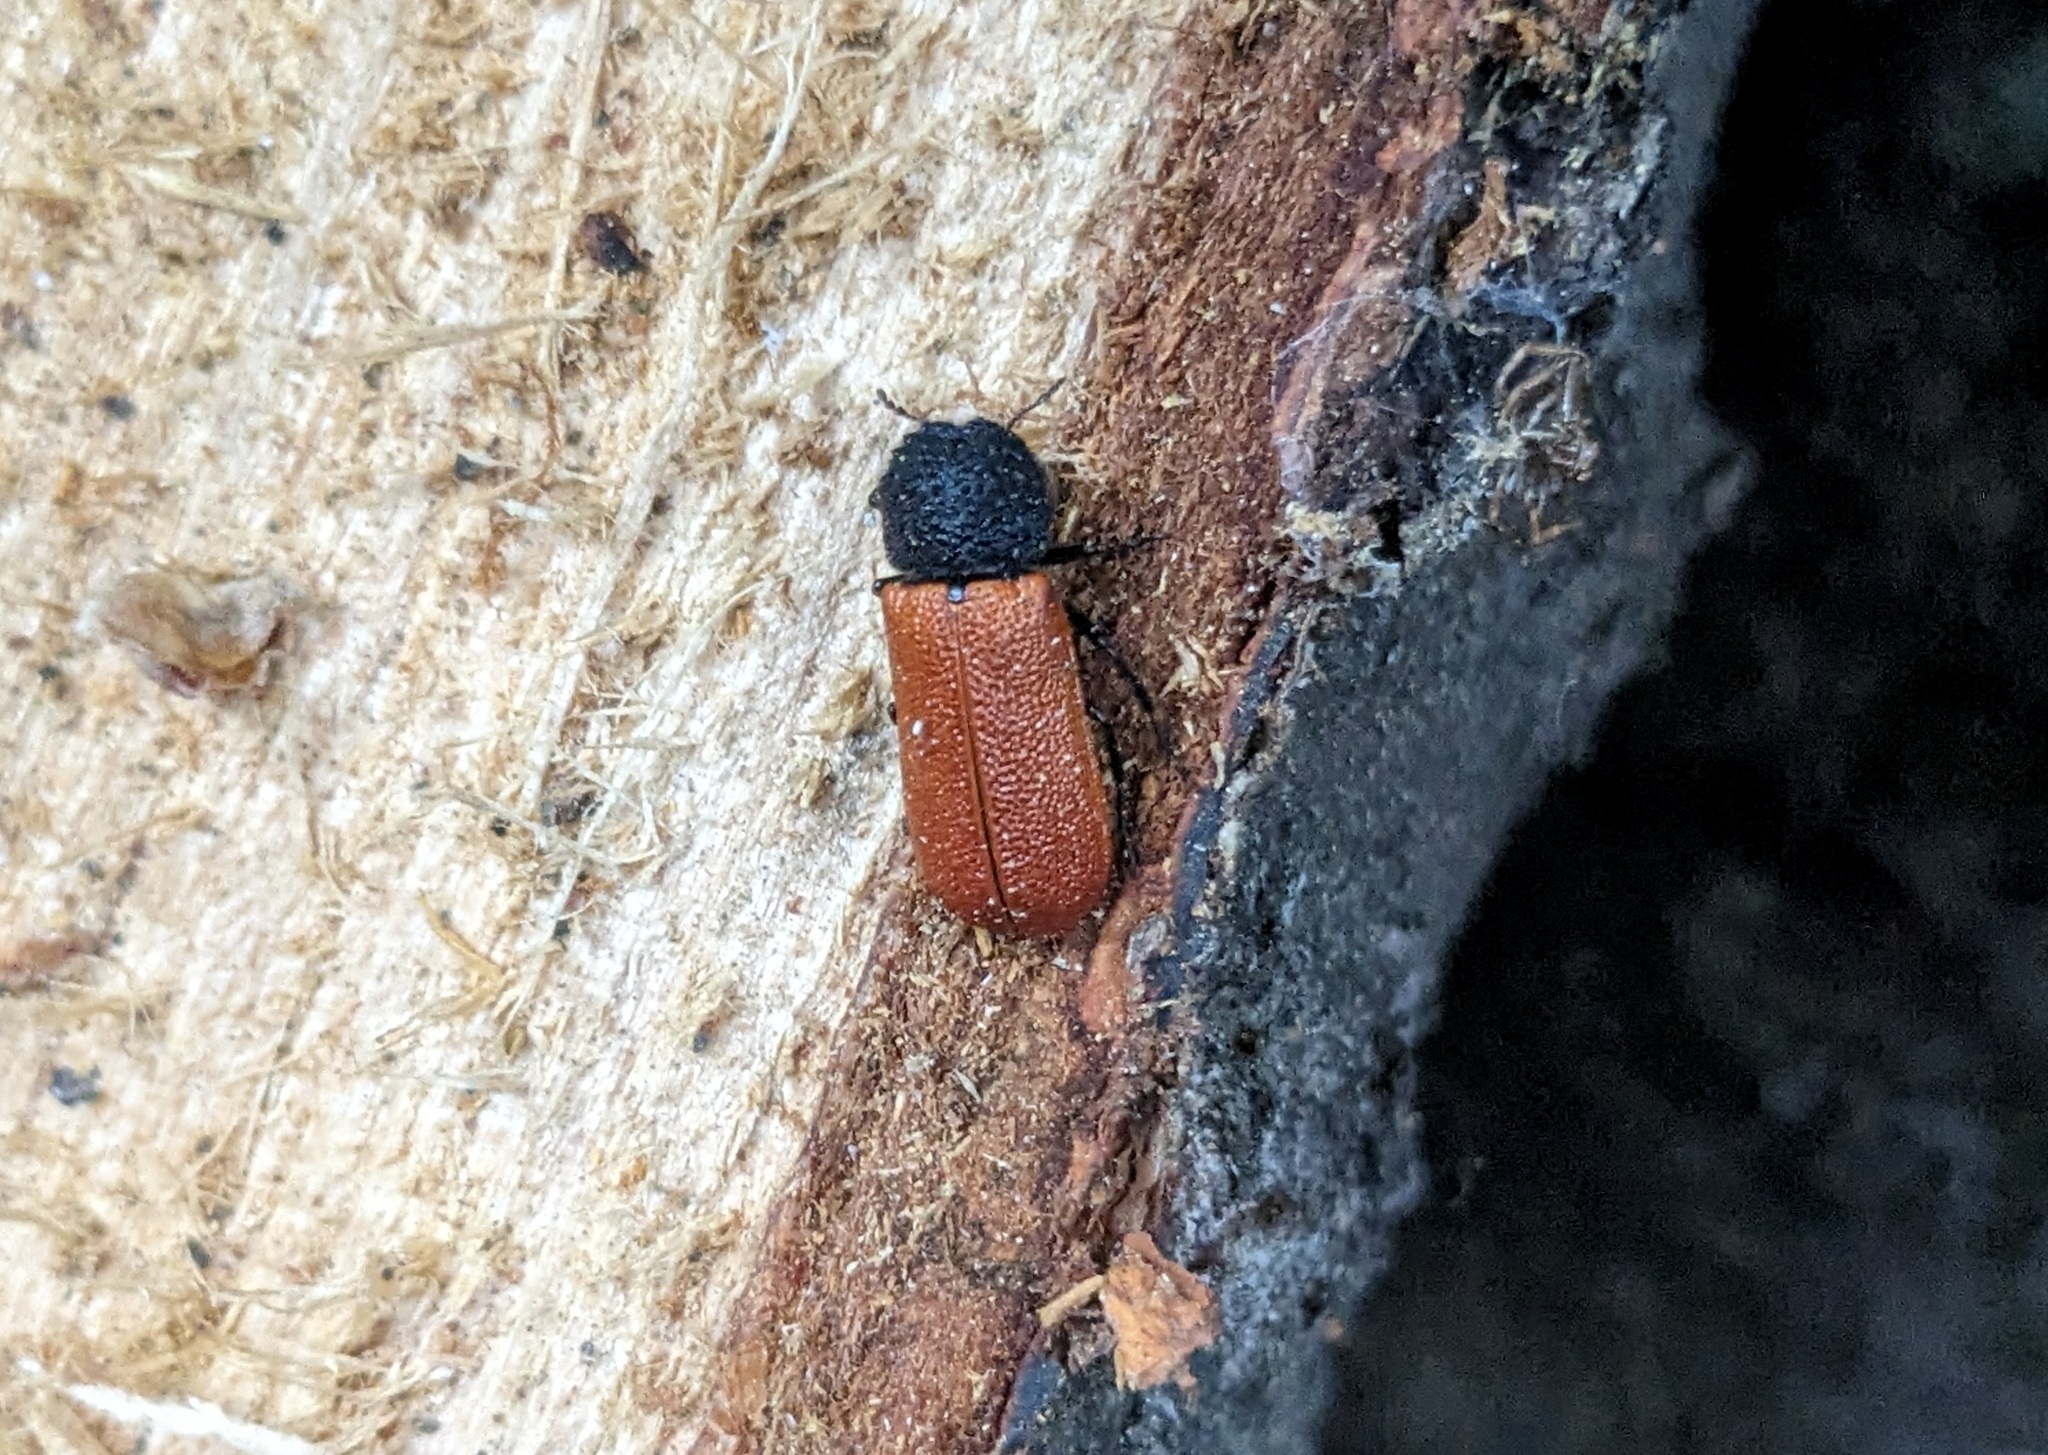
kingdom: Animalia
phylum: Arthropoda
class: Insecta
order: Coleoptera
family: Bostrichidae
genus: Bostrichus
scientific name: Bostrichus capucinus
